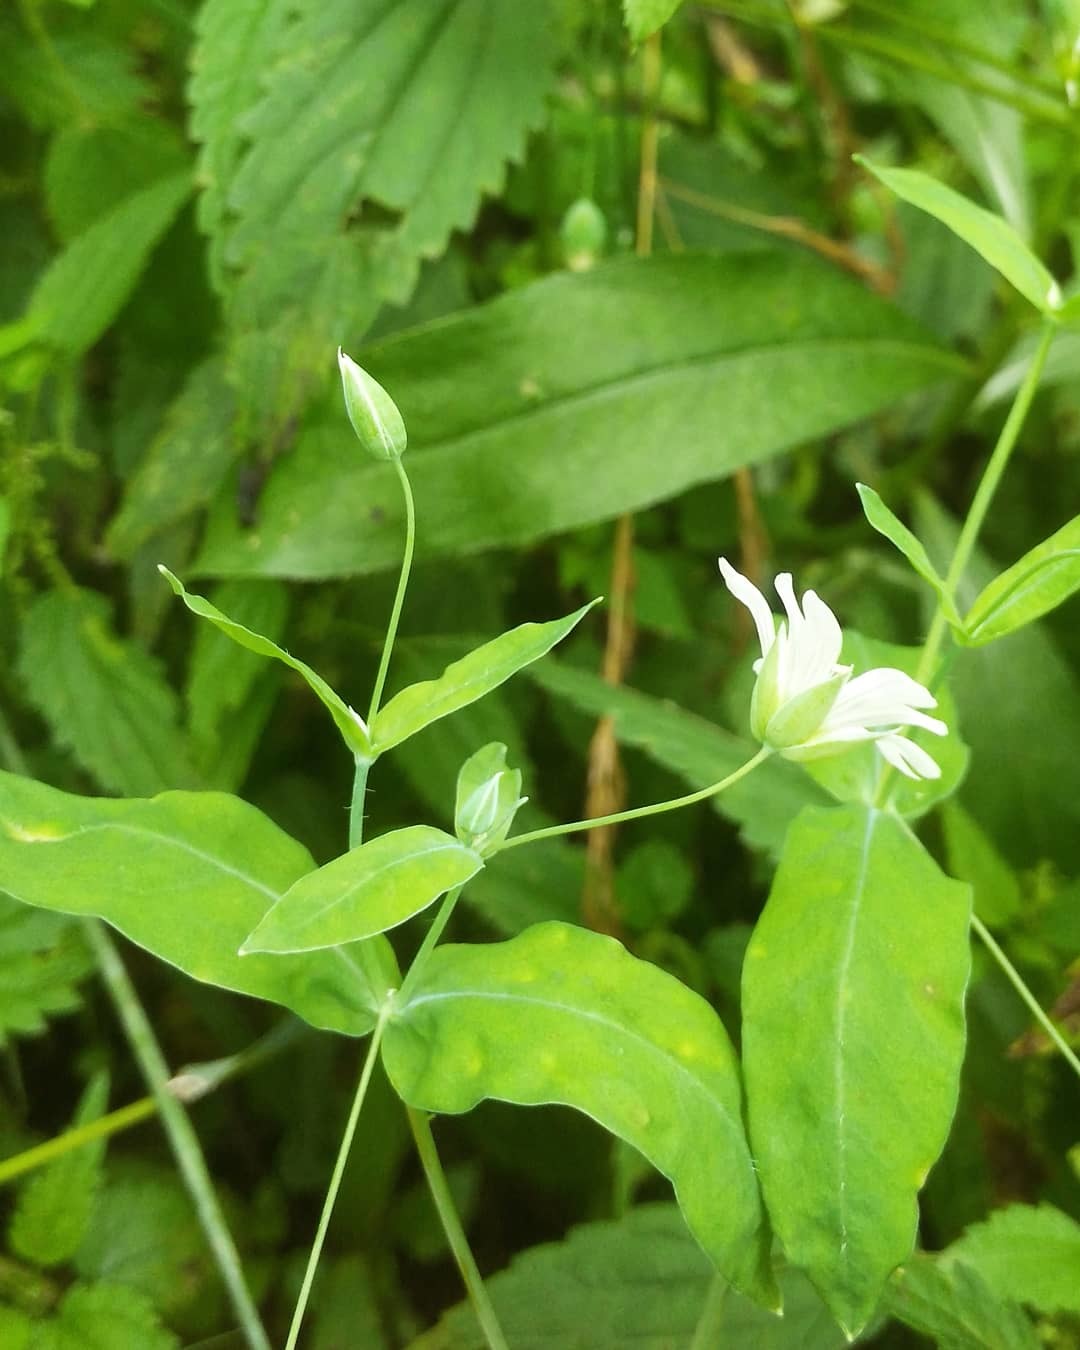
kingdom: Plantae
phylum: Tracheophyta
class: Magnoliopsida
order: Caryophyllales
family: Caryophyllaceae
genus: Cerastium
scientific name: Cerastium davuricum
